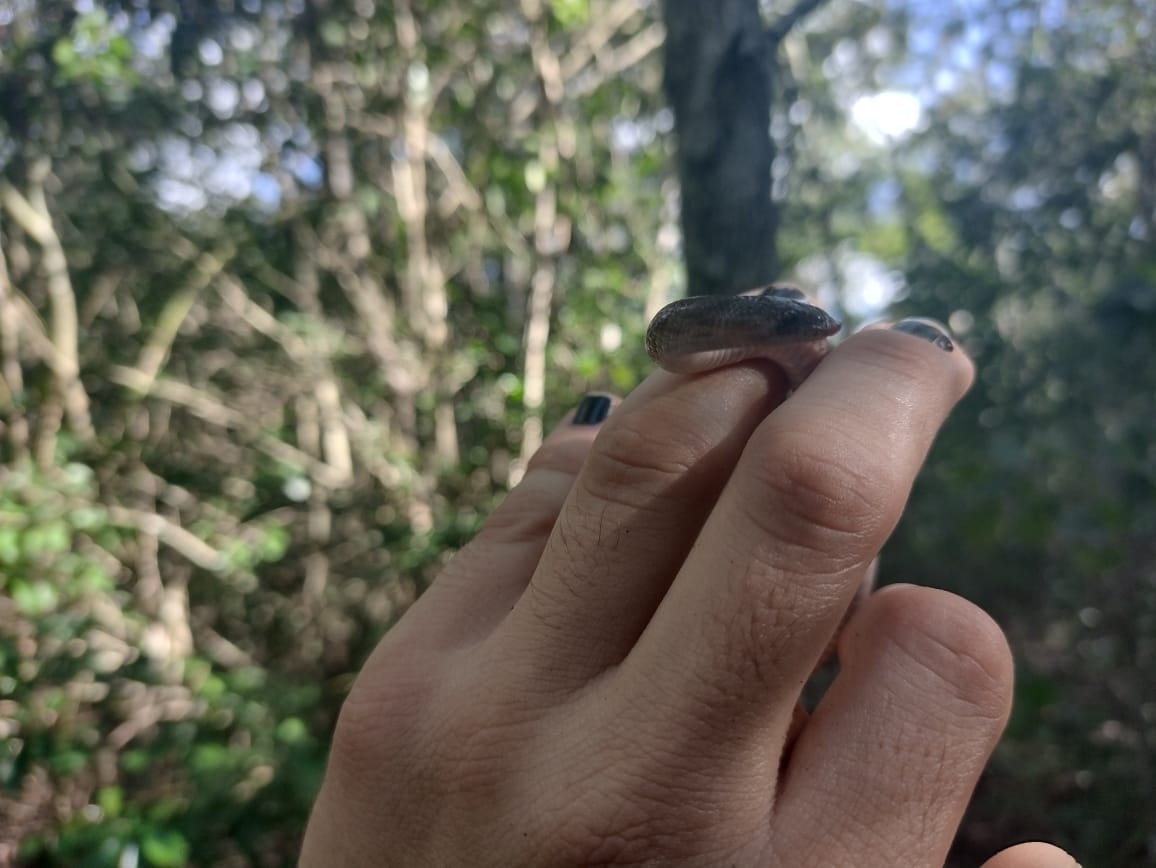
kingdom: Animalia
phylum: Chordata
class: Squamata
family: Colubridae
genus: Ficimia
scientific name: Ficimia publia
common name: Blotched hooknose snake
